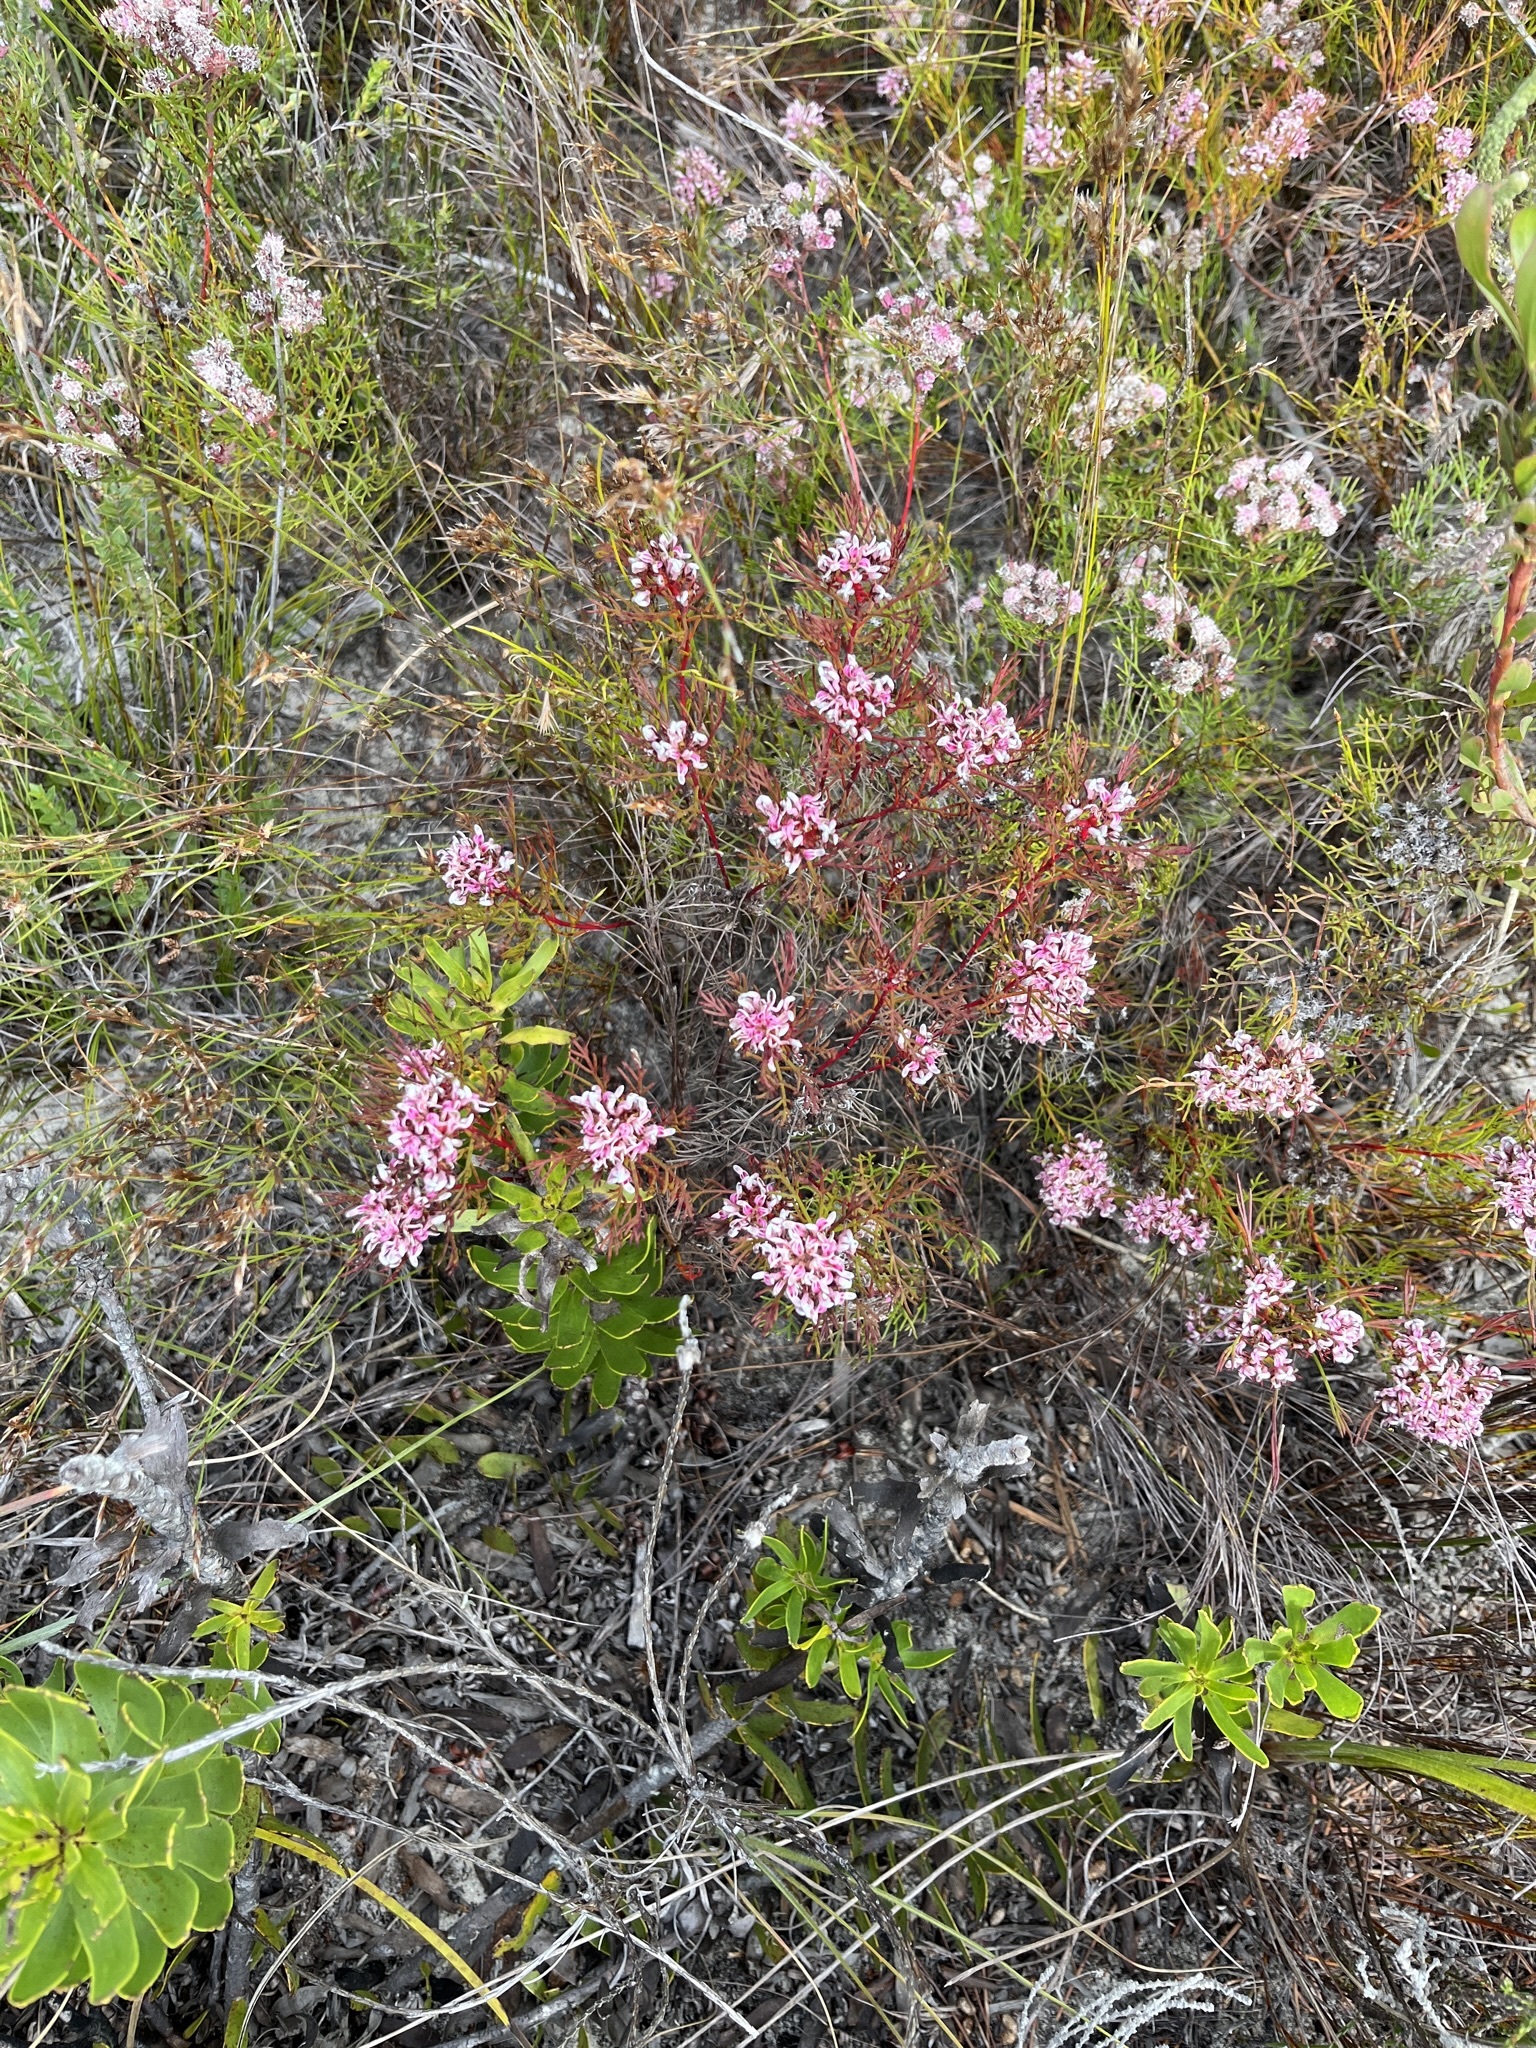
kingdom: Plantae
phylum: Tracheophyta
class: Magnoliopsida
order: Proteales
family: Proteaceae
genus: Serruria
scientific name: Serruria bolusii
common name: Agulhas spiderhead
